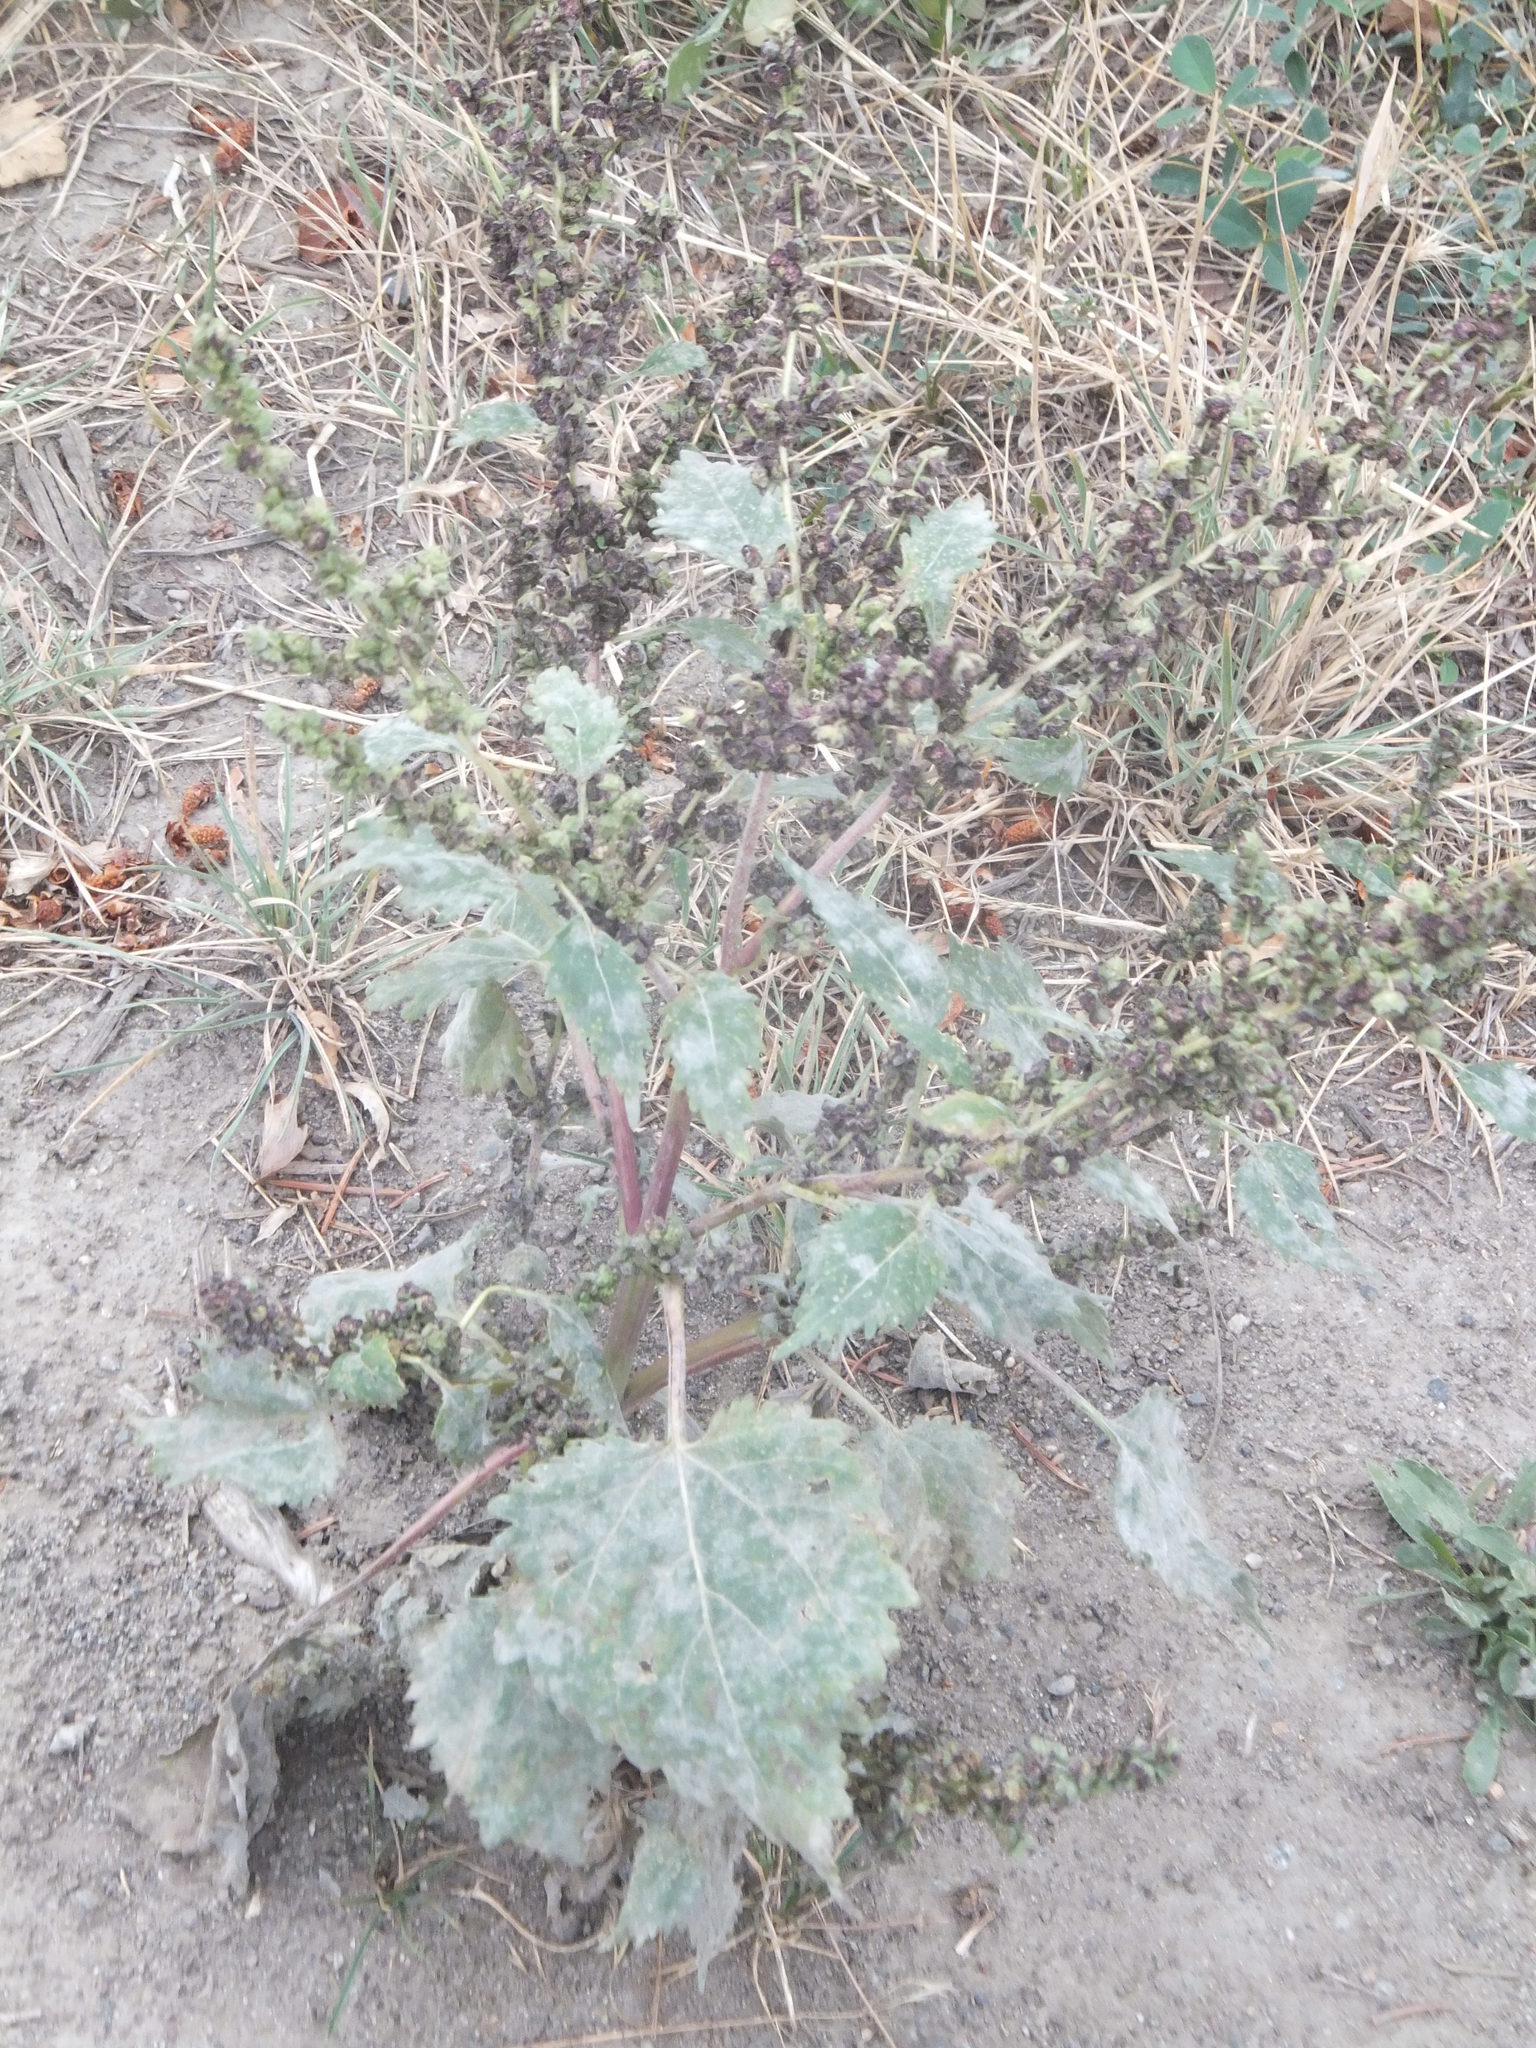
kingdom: Plantae
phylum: Tracheophyta
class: Magnoliopsida
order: Asterales
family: Asteraceae
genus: Cyclachaena
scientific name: Cyclachaena xanthiifolia
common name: Giant sumpweed
